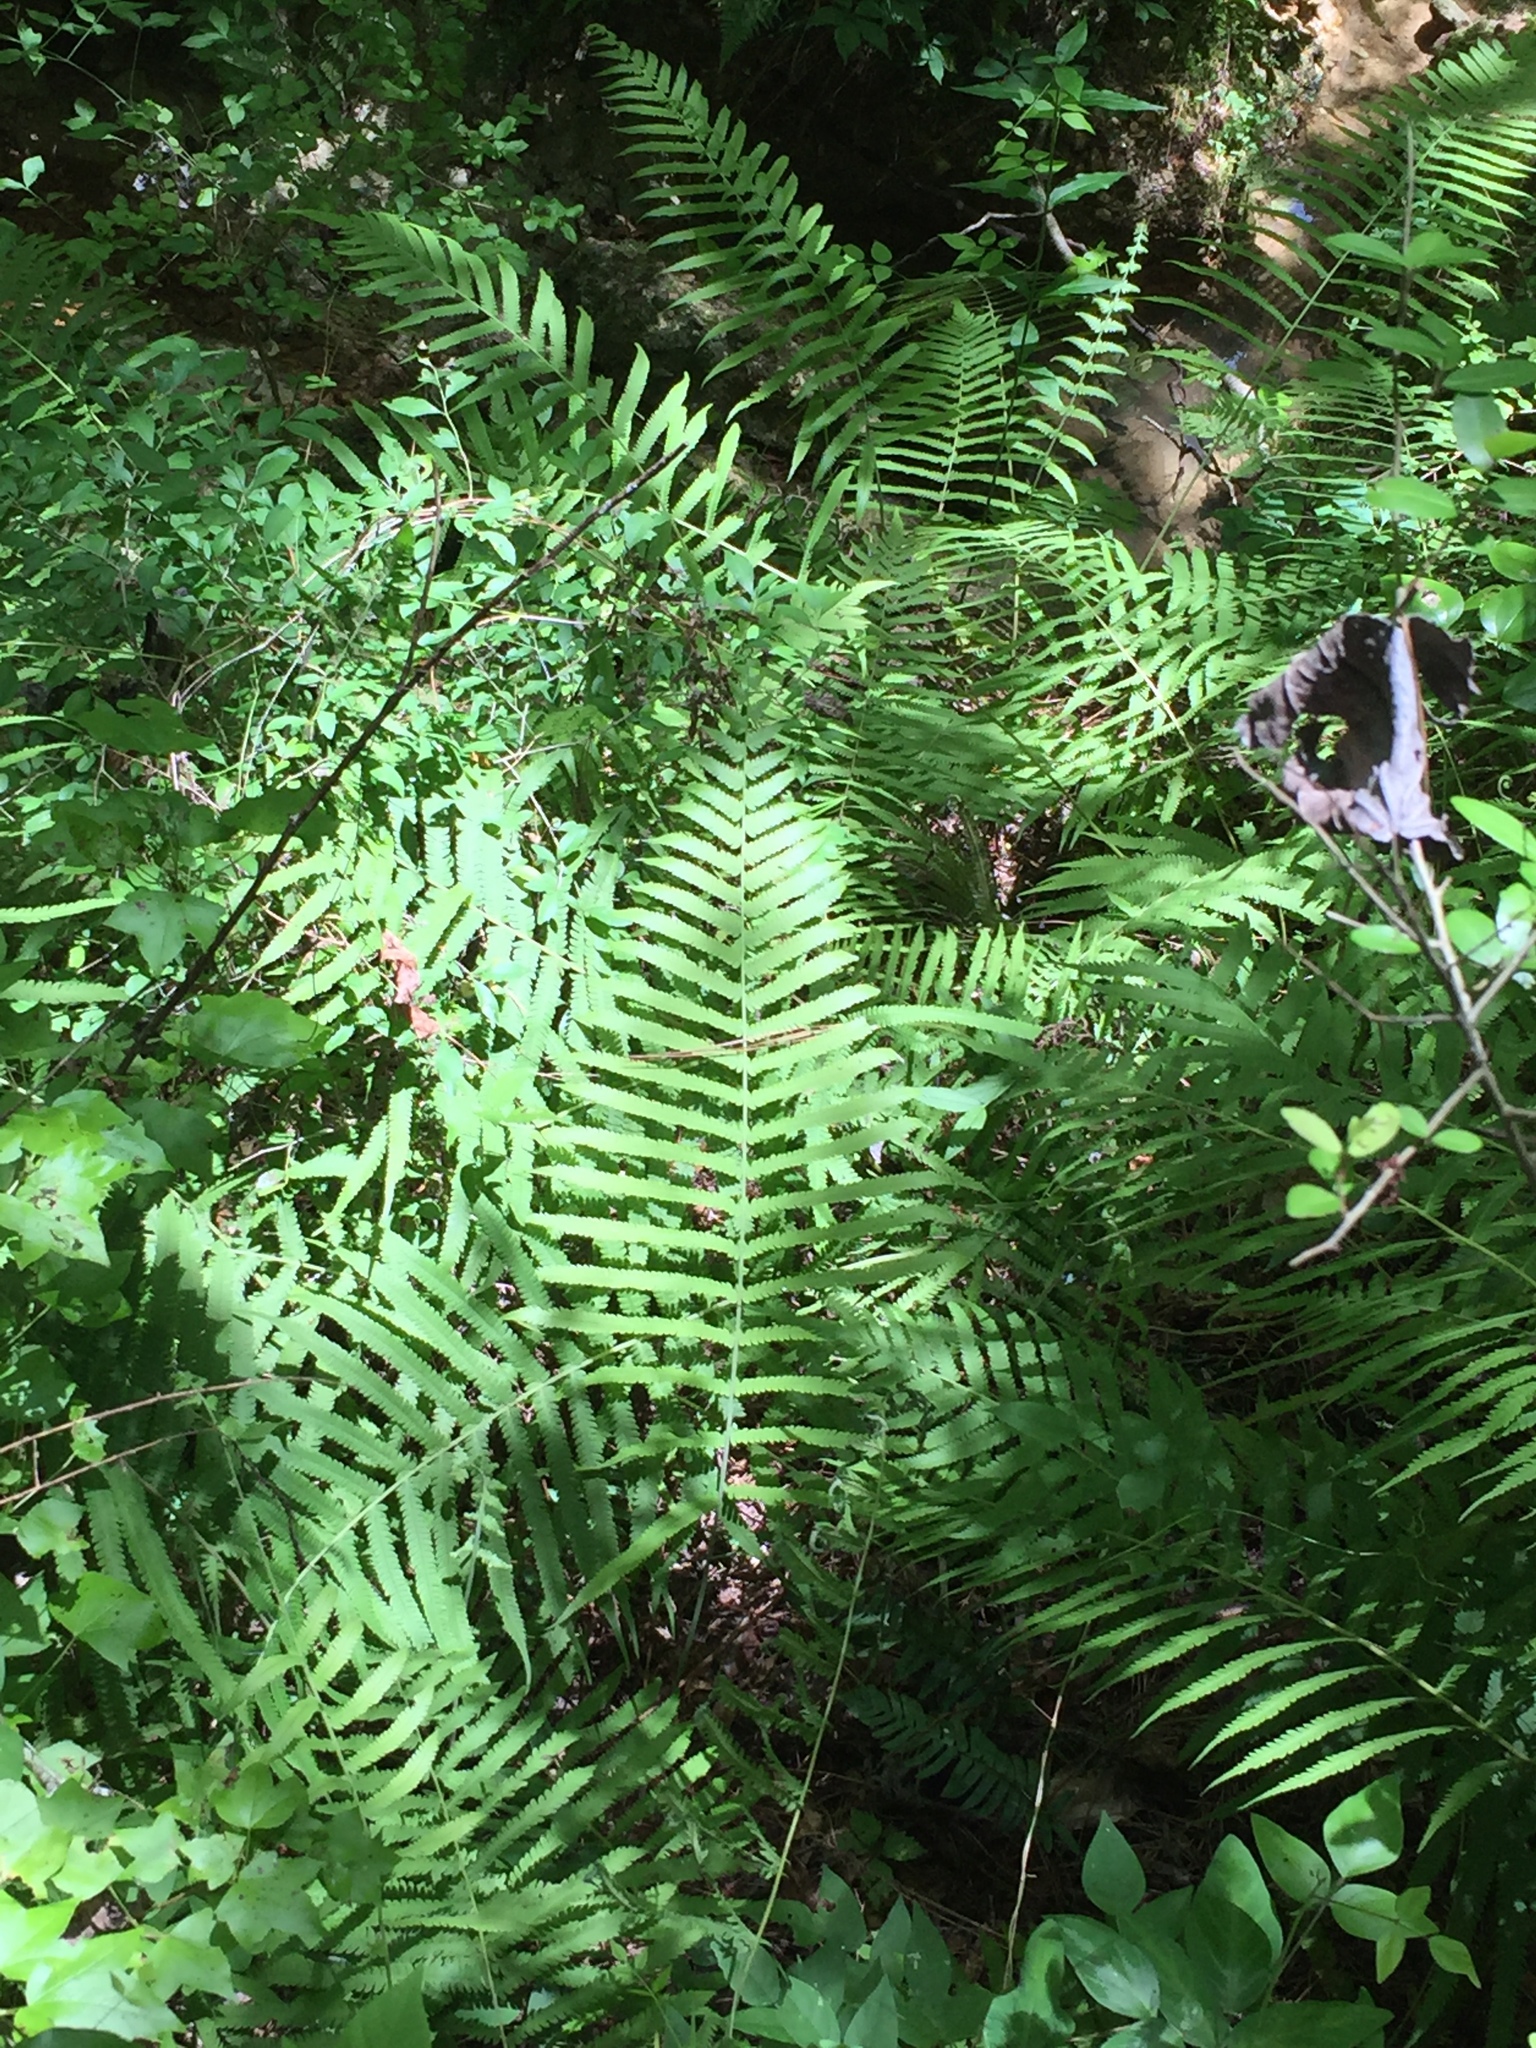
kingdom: Plantae
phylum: Tracheophyta
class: Polypodiopsida
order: Polypodiales
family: Thelypteridaceae
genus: Pelazoneuron
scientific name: Pelazoneuron kunthii
